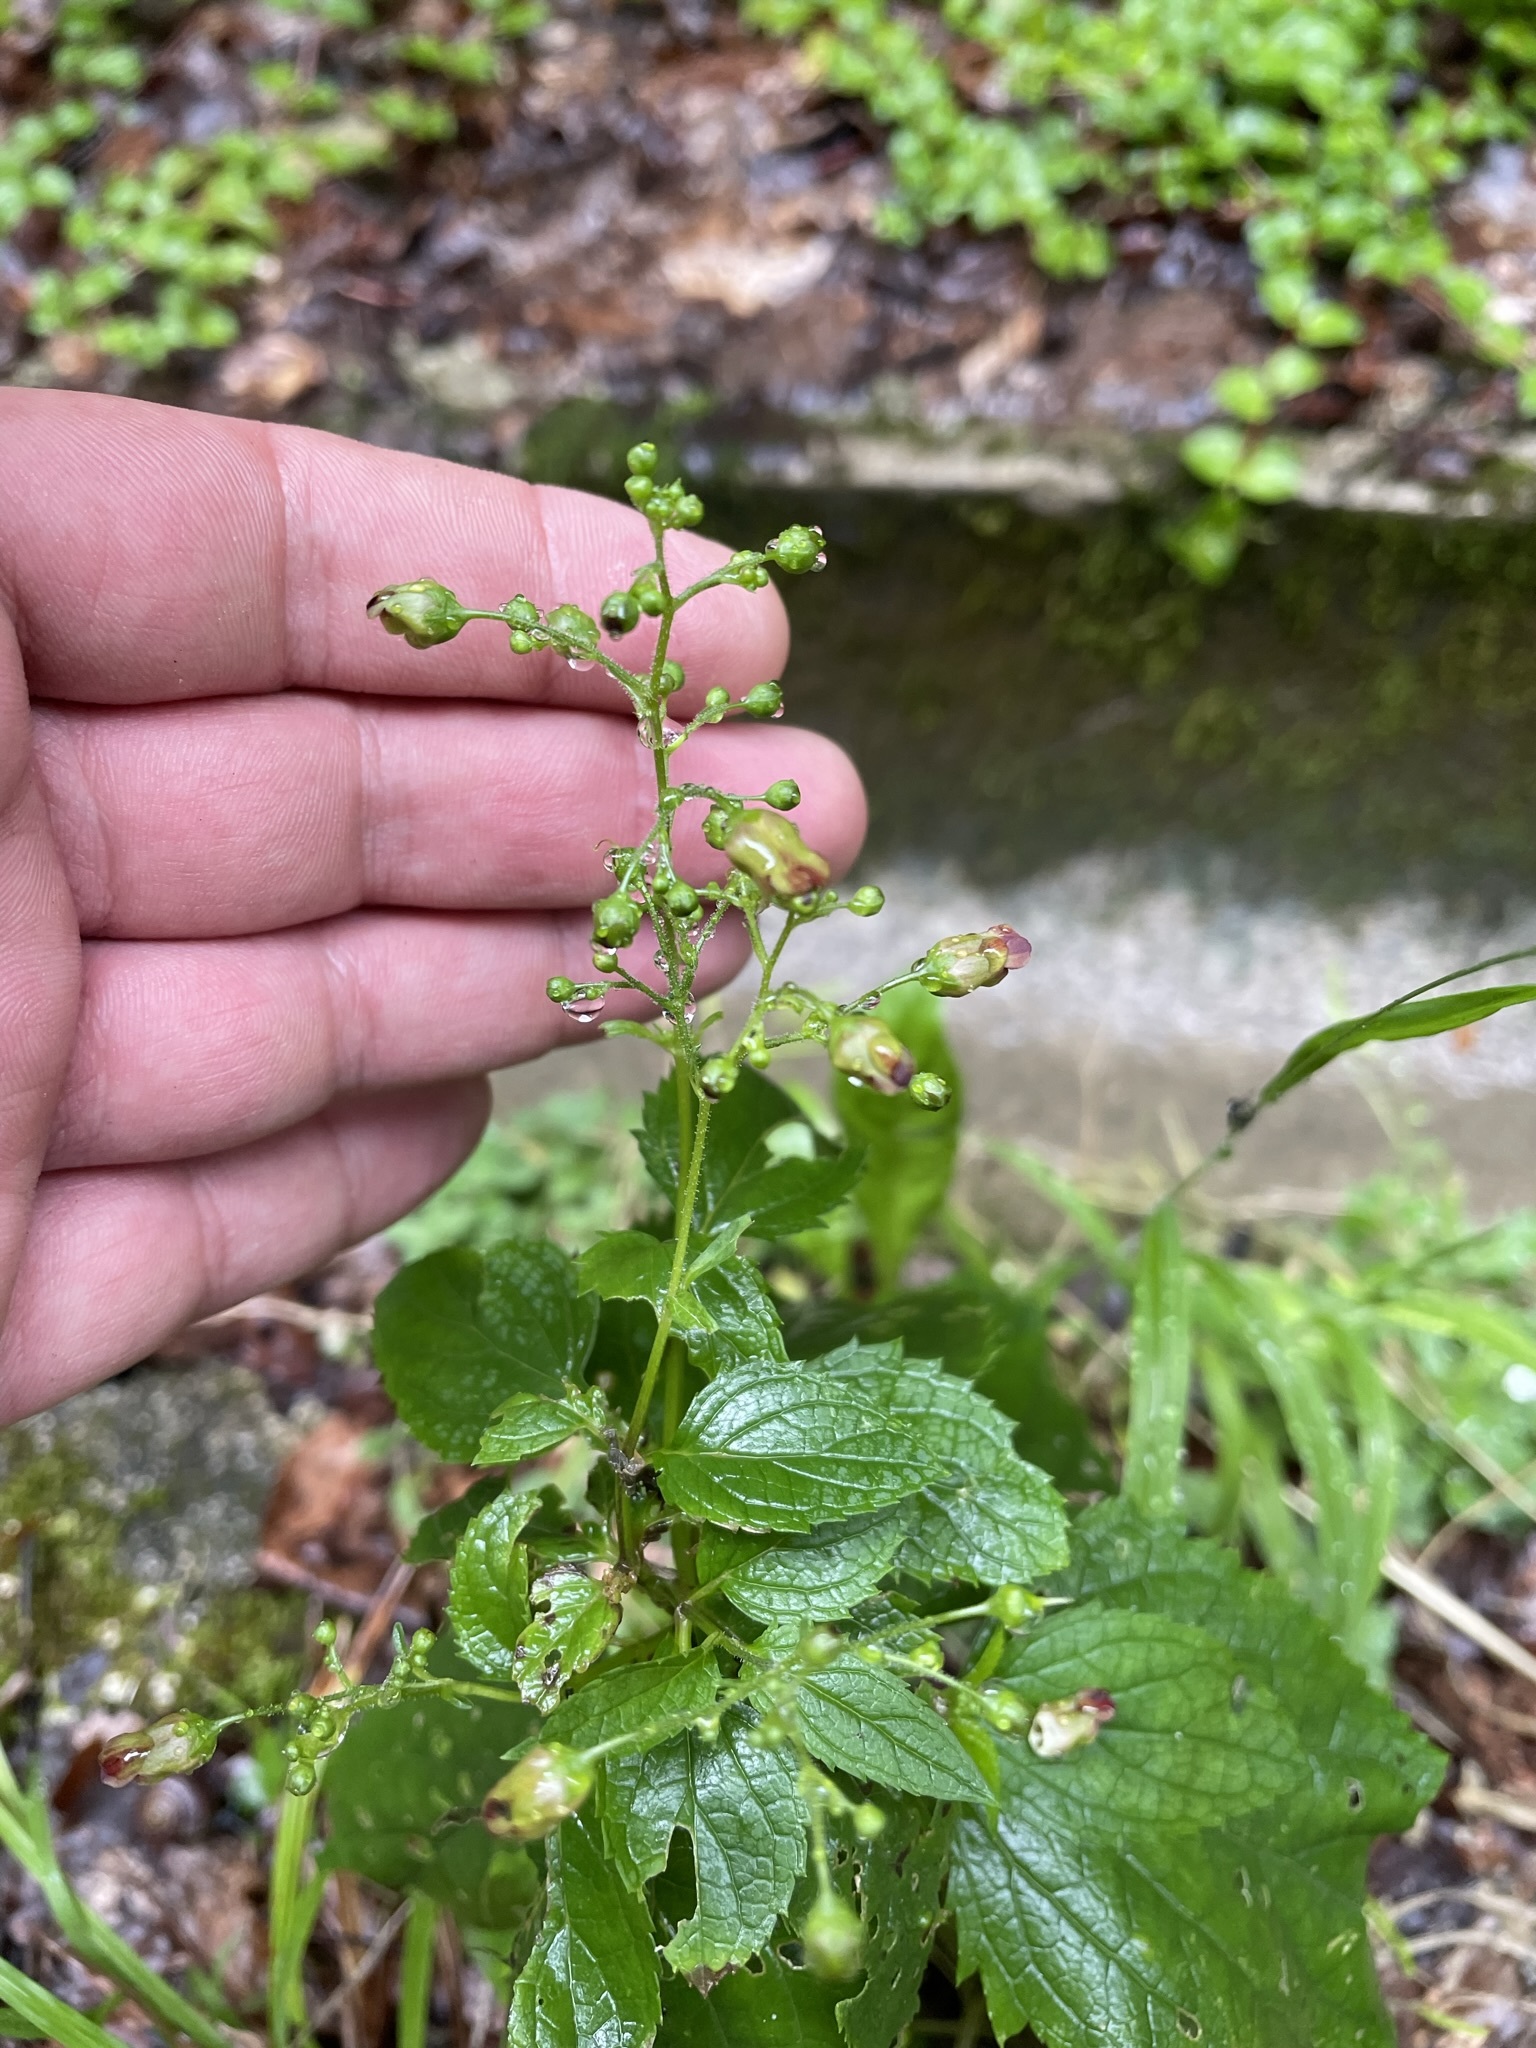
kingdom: Plantae
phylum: Tracheophyta
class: Magnoliopsida
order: Lamiales
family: Scrophulariaceae
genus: Scrophularia
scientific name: Scrophularia nodosa
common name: Common figwort
